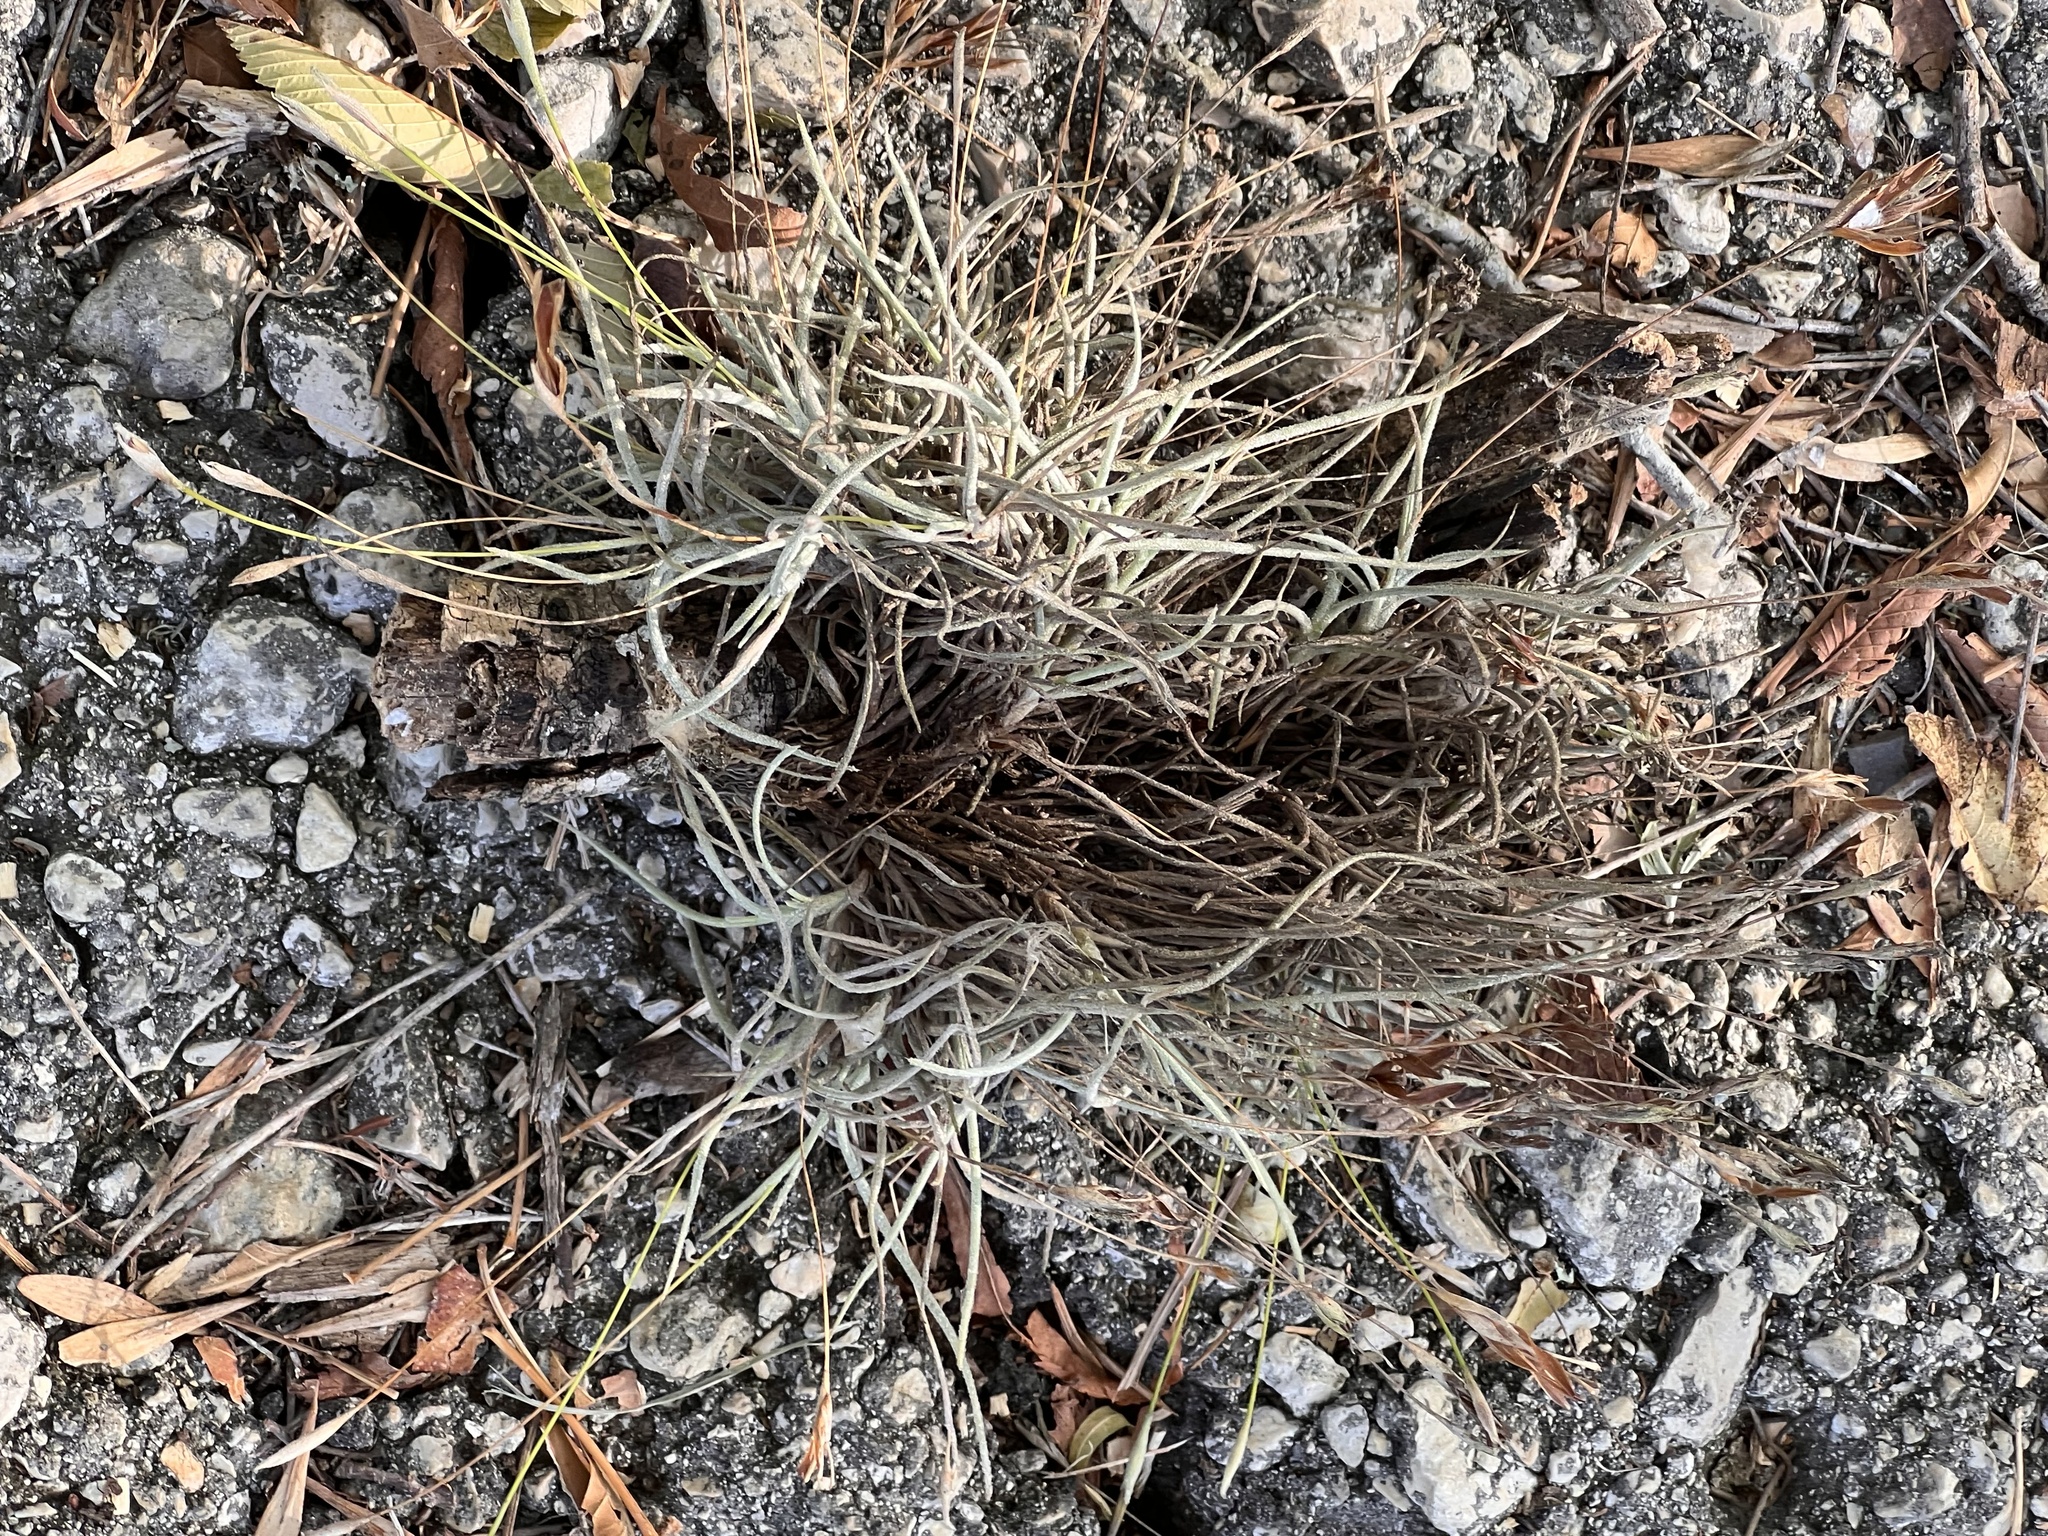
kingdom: Plantae
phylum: Tracheophyta
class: Liliopsida
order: Poales
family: Bromeliaceae
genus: Tillandsia
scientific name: Tillandsia recurvata
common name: Small ballmoss
